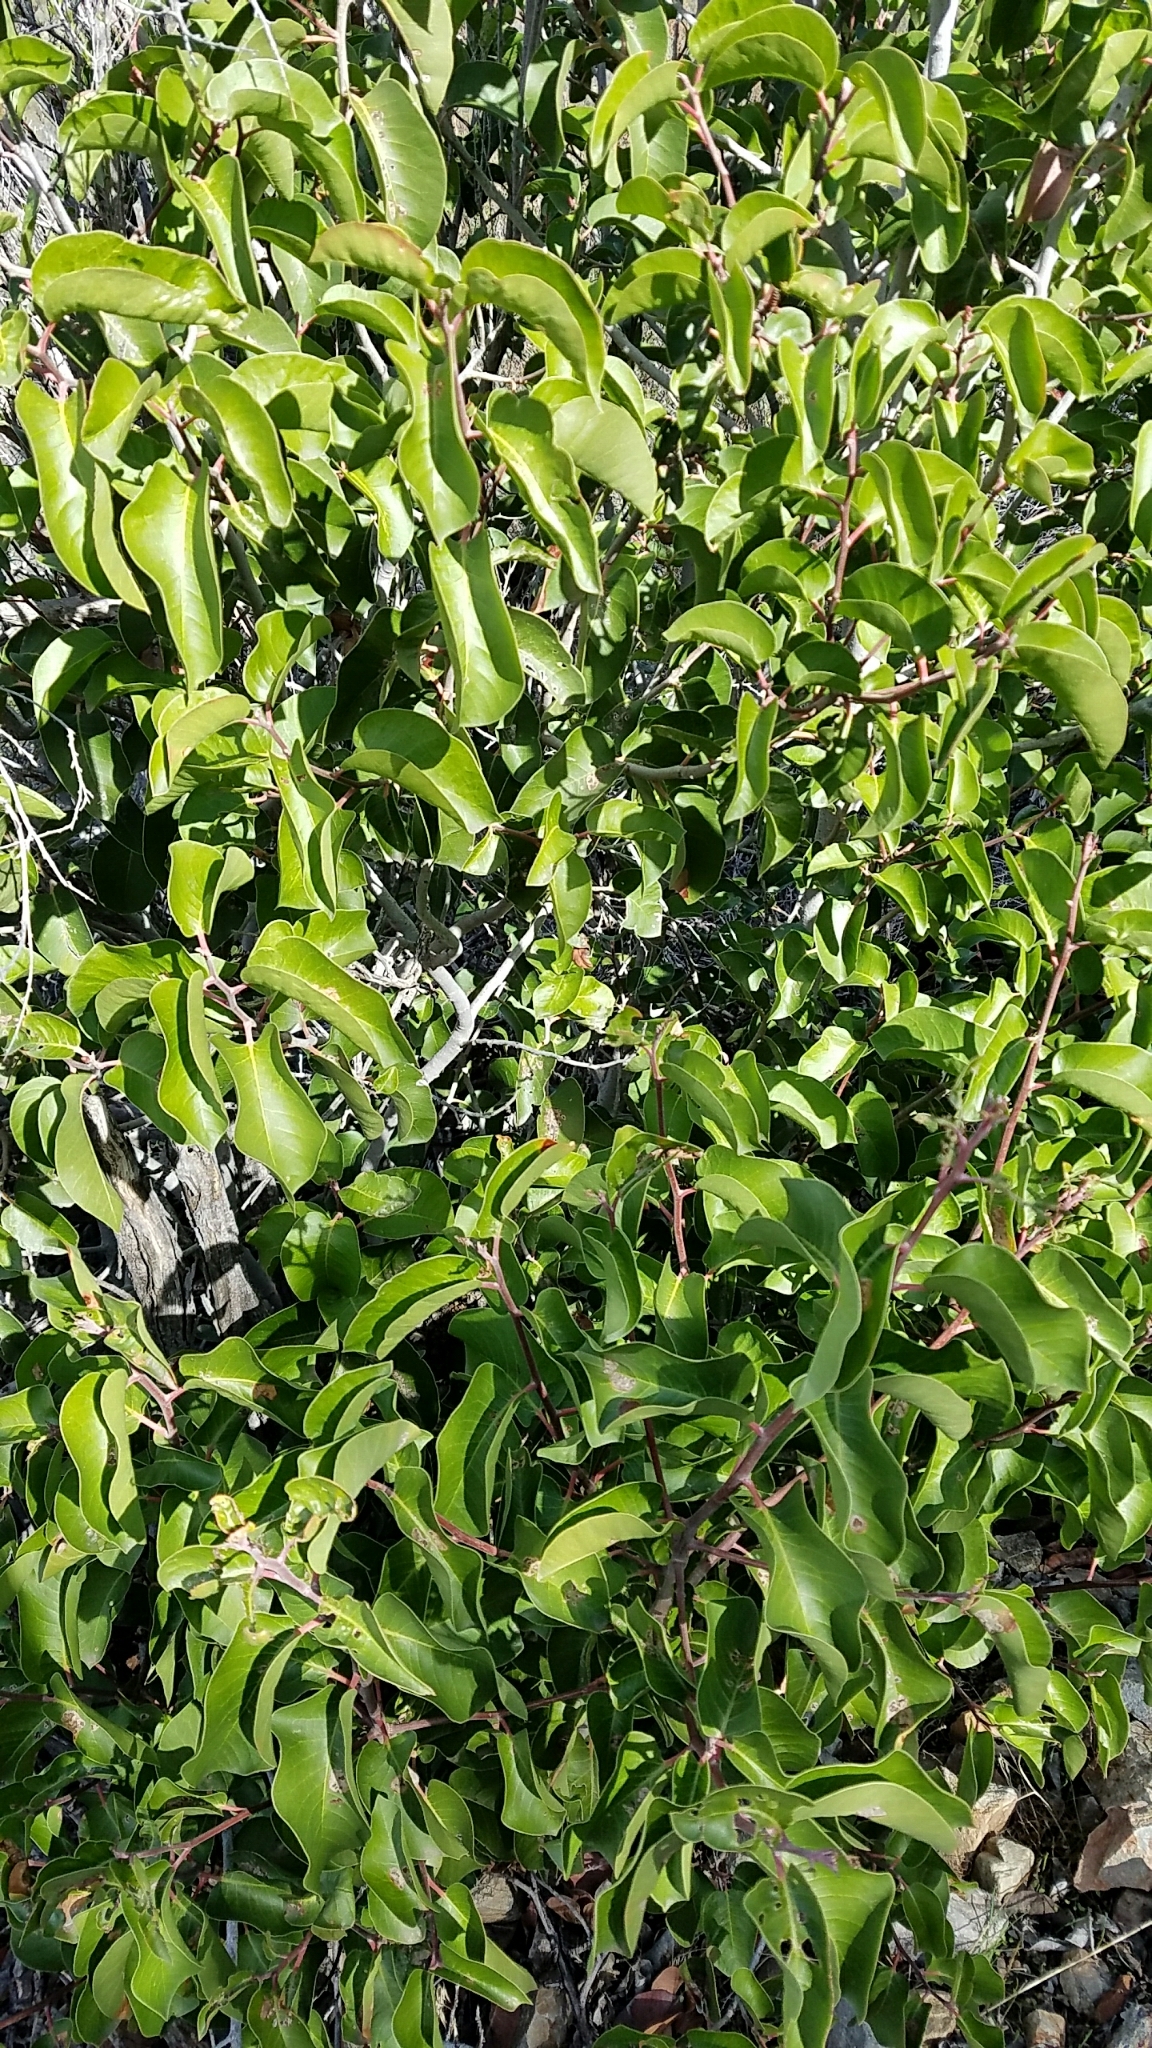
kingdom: Plantae
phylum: Tracheophyta
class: Magnoliopsida
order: Sapindales
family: Anacardiaceae
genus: Rhus
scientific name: Rhus ovata
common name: Sugar sumac
